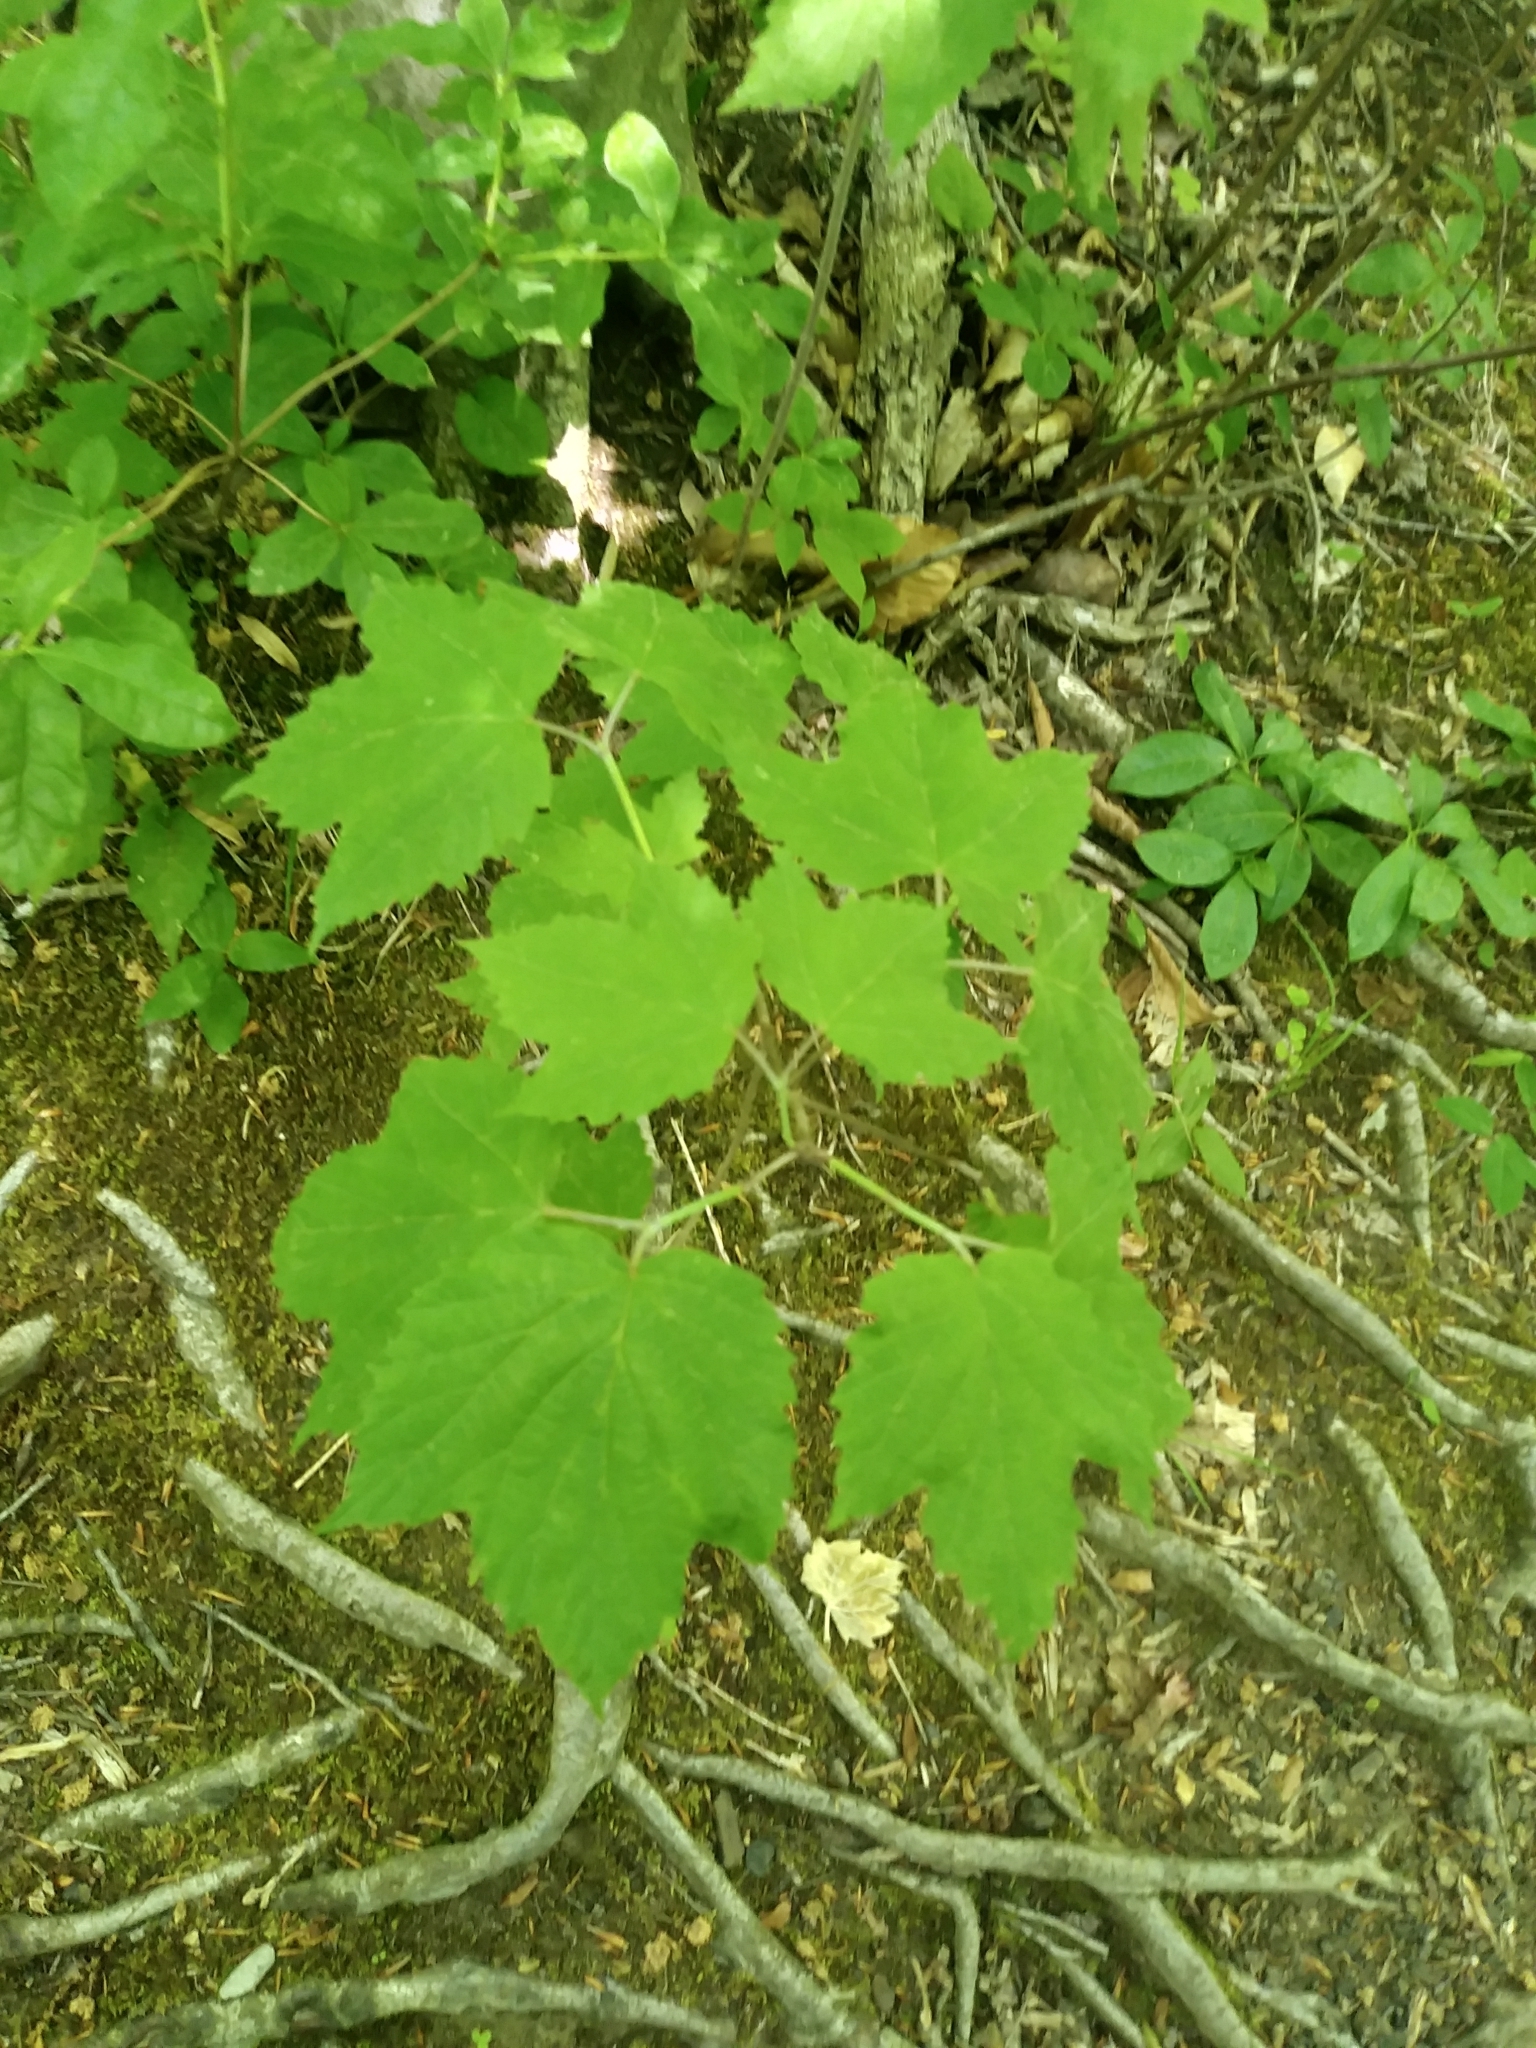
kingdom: Plantae
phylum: Tracheophyta
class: Magnoliopsida
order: Dipsacales
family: Viburnaceae
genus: Viburnum
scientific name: Viburnum acerifolium
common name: Dockmackie
